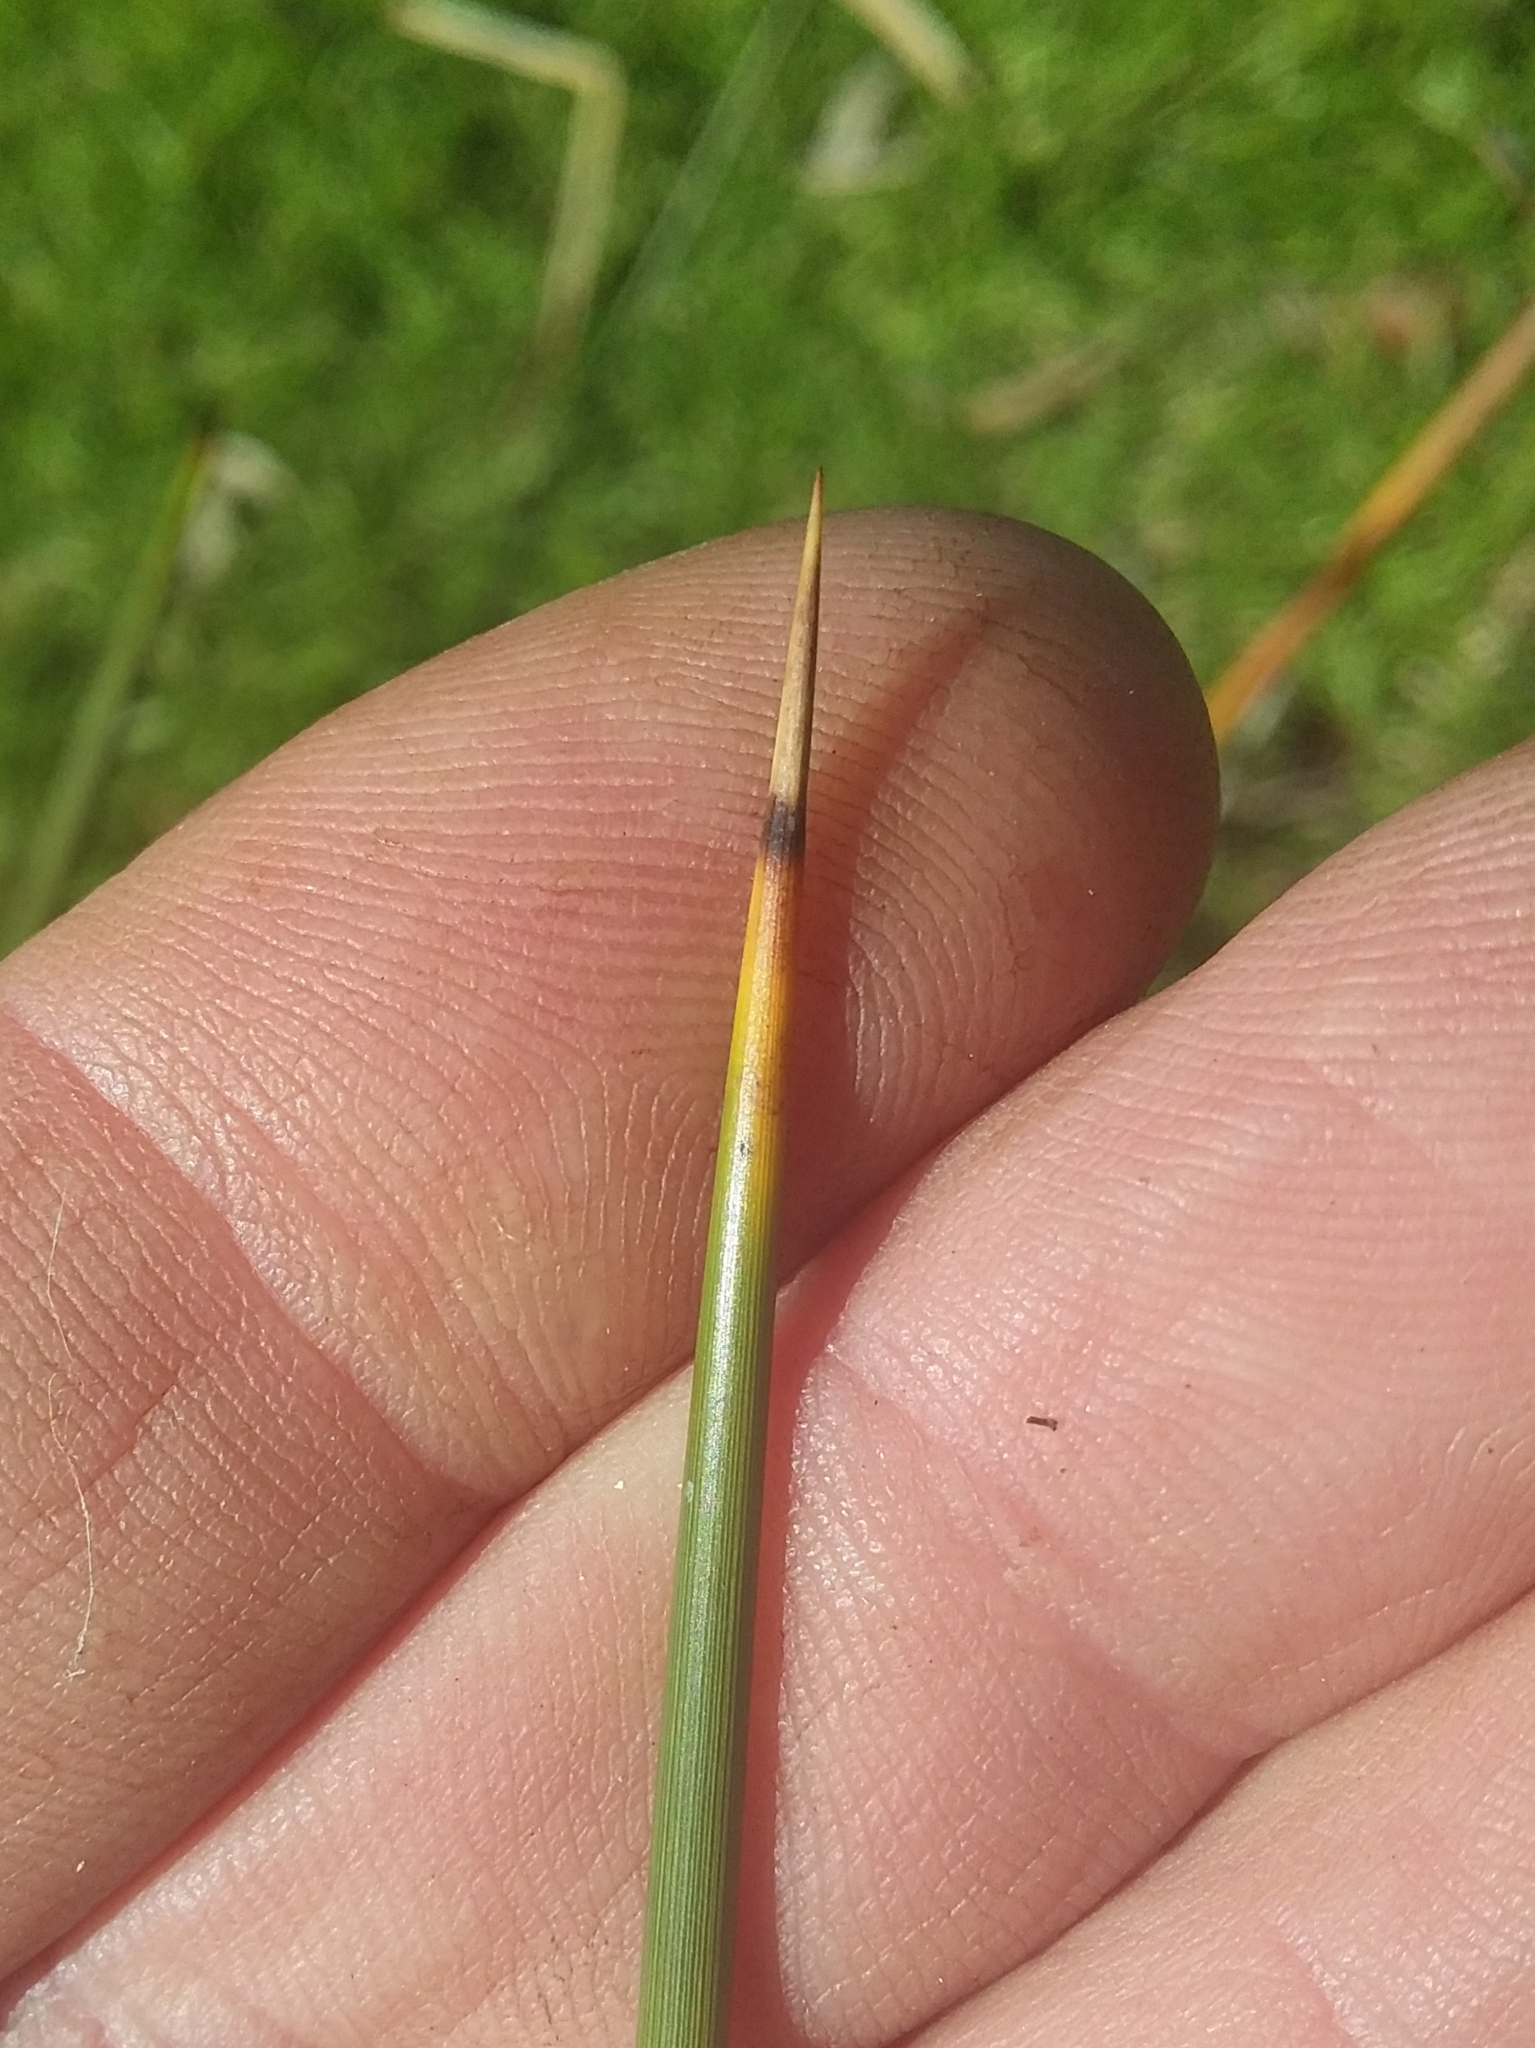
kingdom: Plantae
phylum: Tracheophyta
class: Liliopsida
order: Poales
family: Juncaceae
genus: Juncus
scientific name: Juncus acutus
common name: Sharp rush
